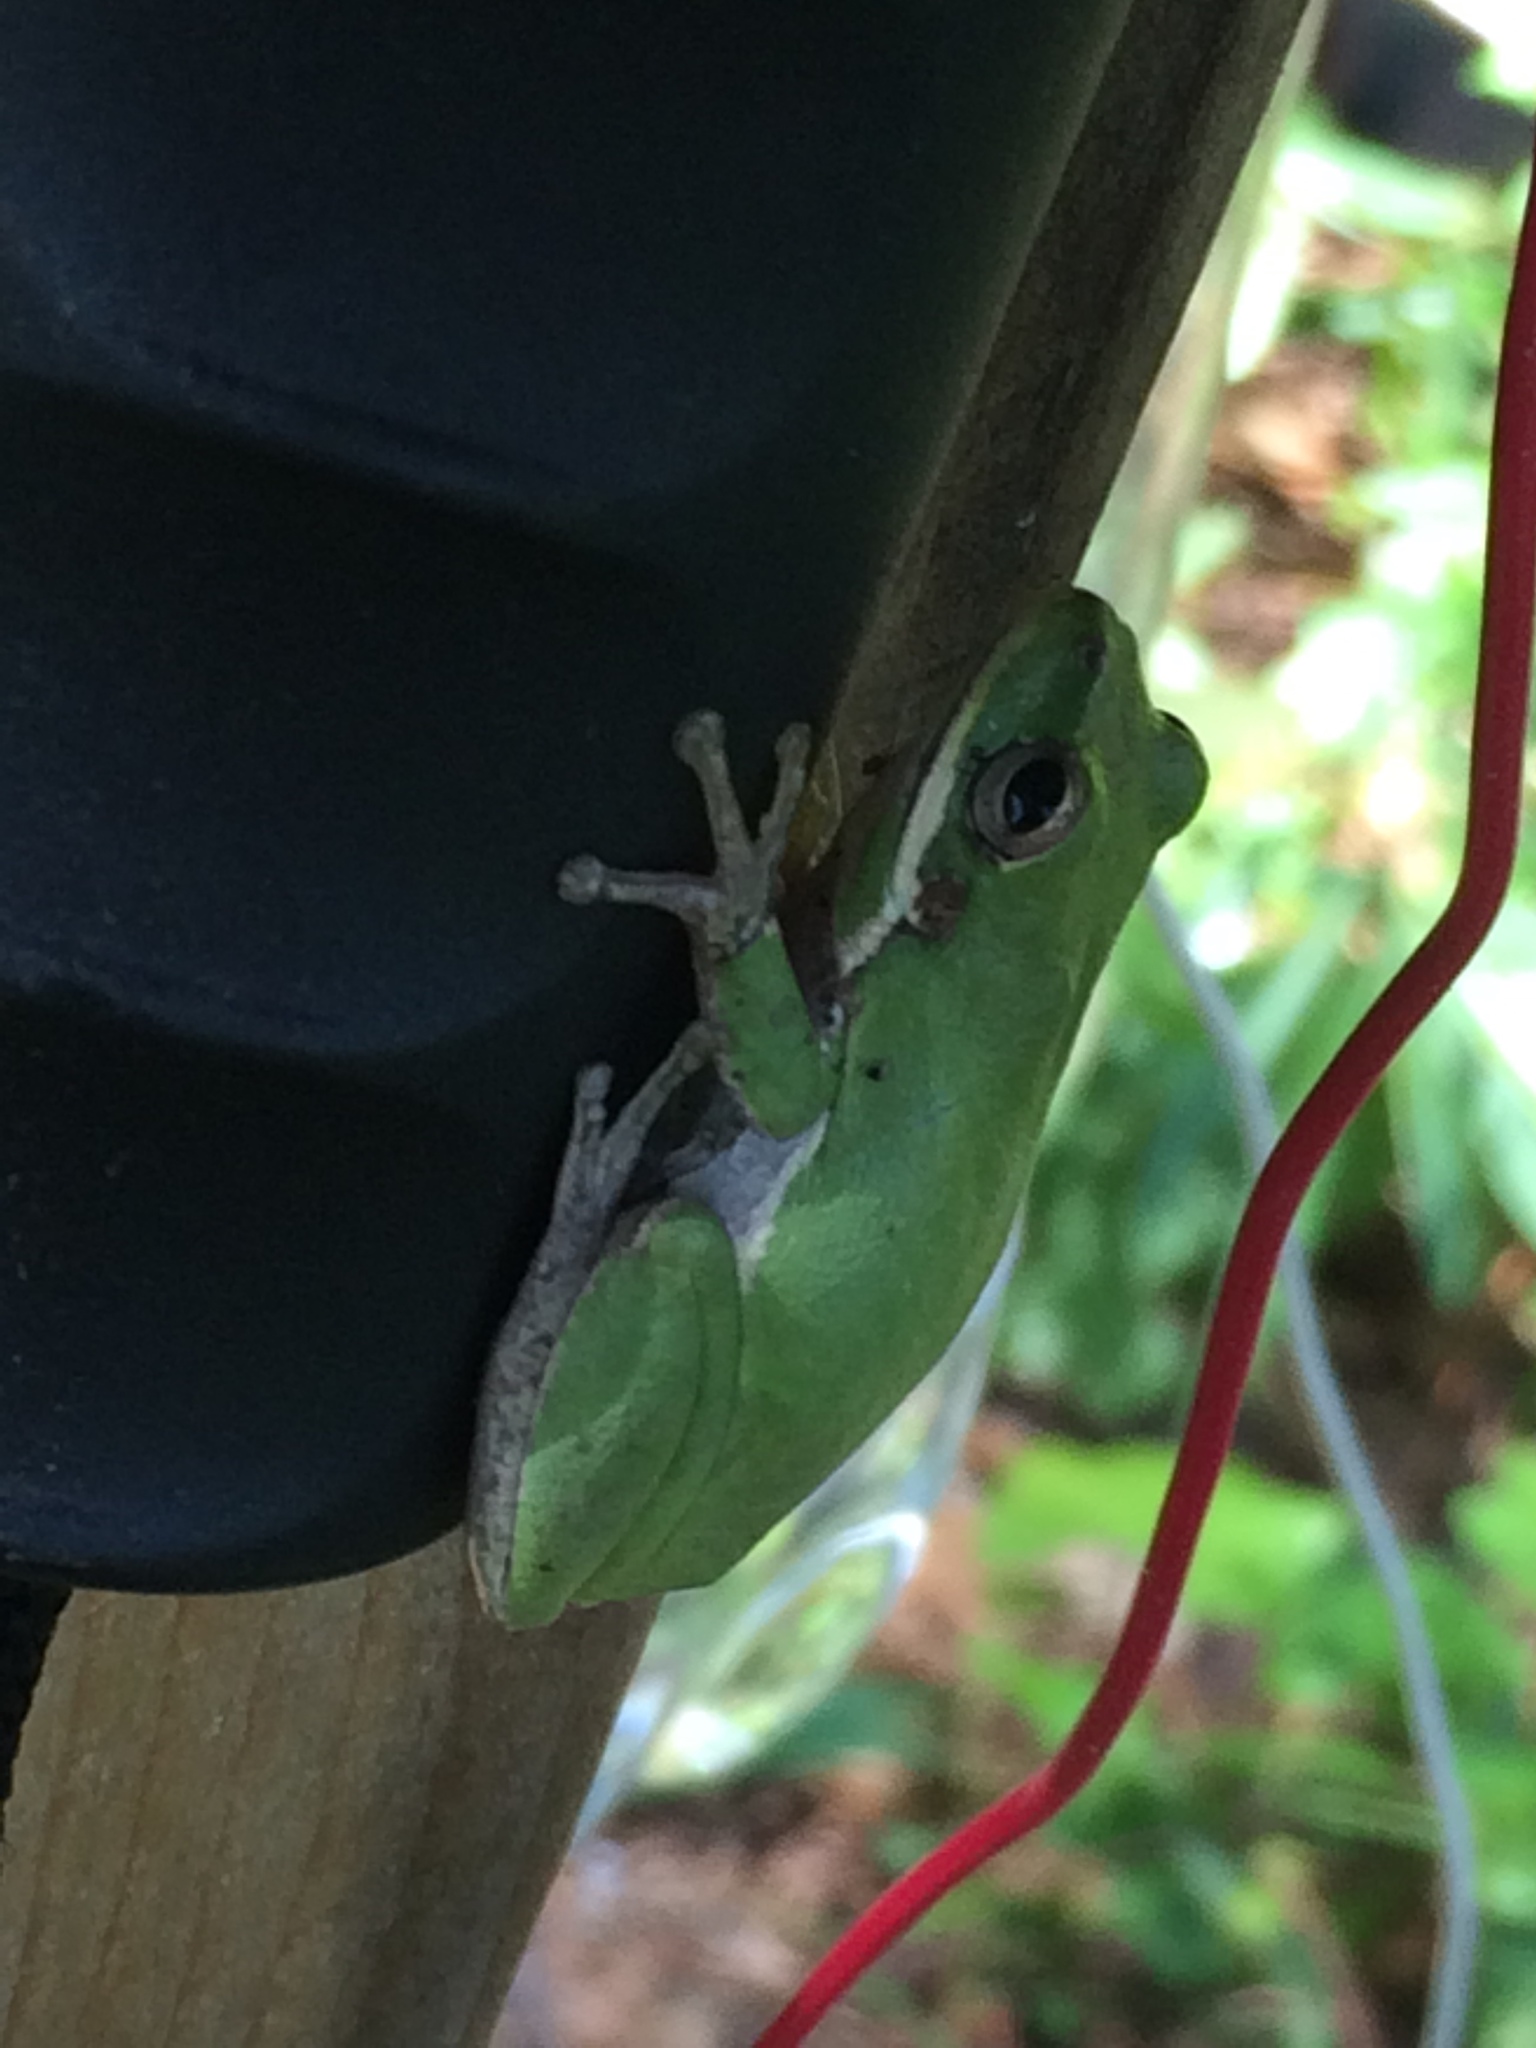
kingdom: Animalia
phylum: Chordata
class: Amphibia
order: Anura
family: Hylidae
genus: Dryophytes
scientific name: Dryophytes squirellus
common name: Squirrel treefrog
